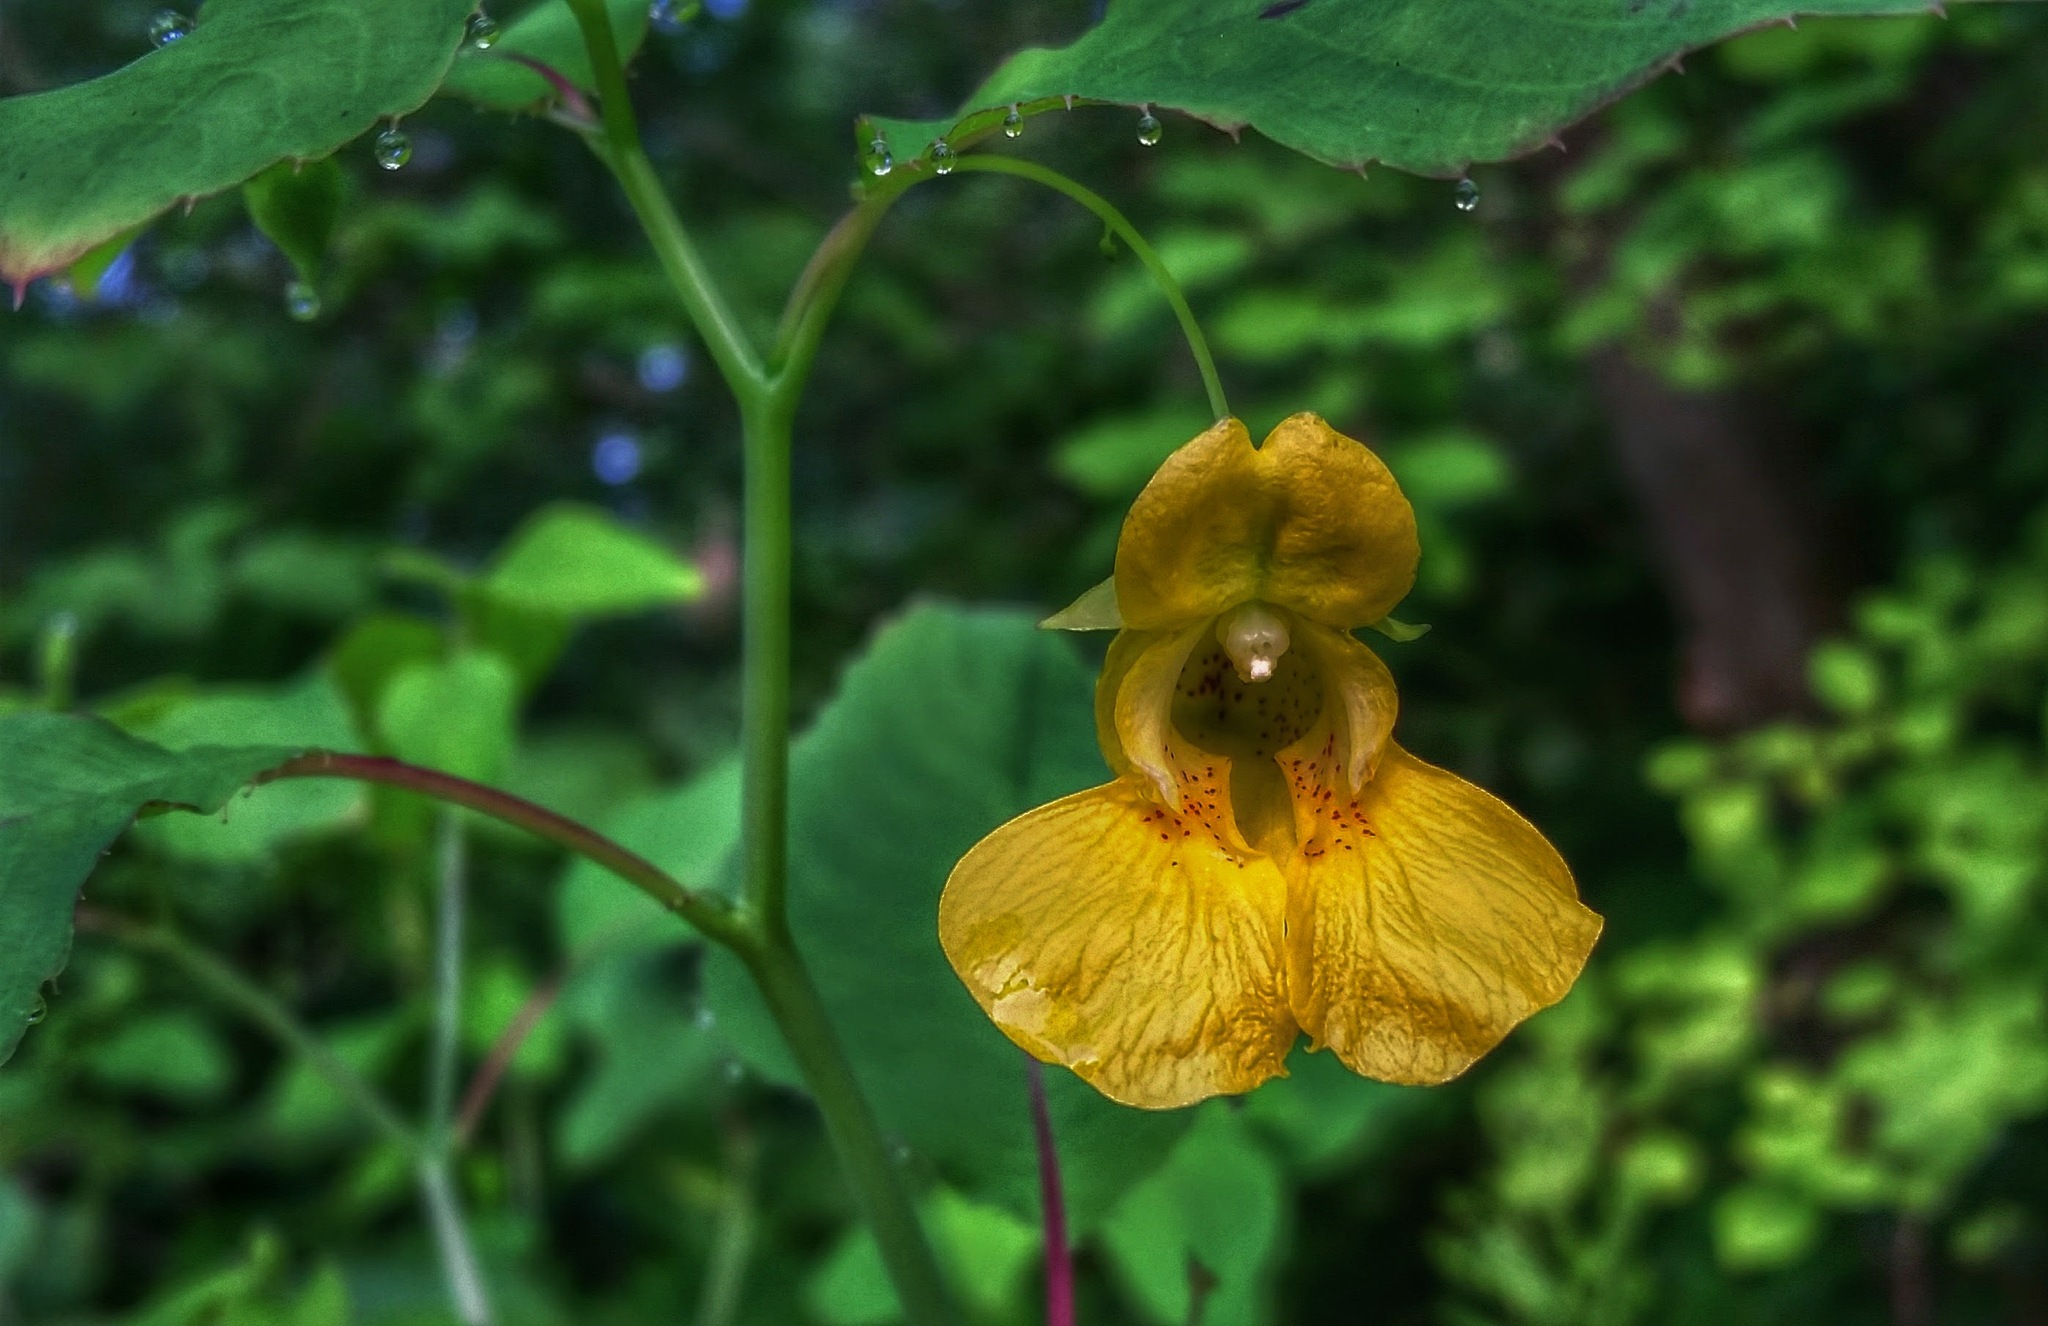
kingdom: Plantae
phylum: Tracheophyta
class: Magnoliopsida
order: Ericales
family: Balsaminaceae
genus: Impatiens
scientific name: Impatiens pallida
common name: Pale snapweed
